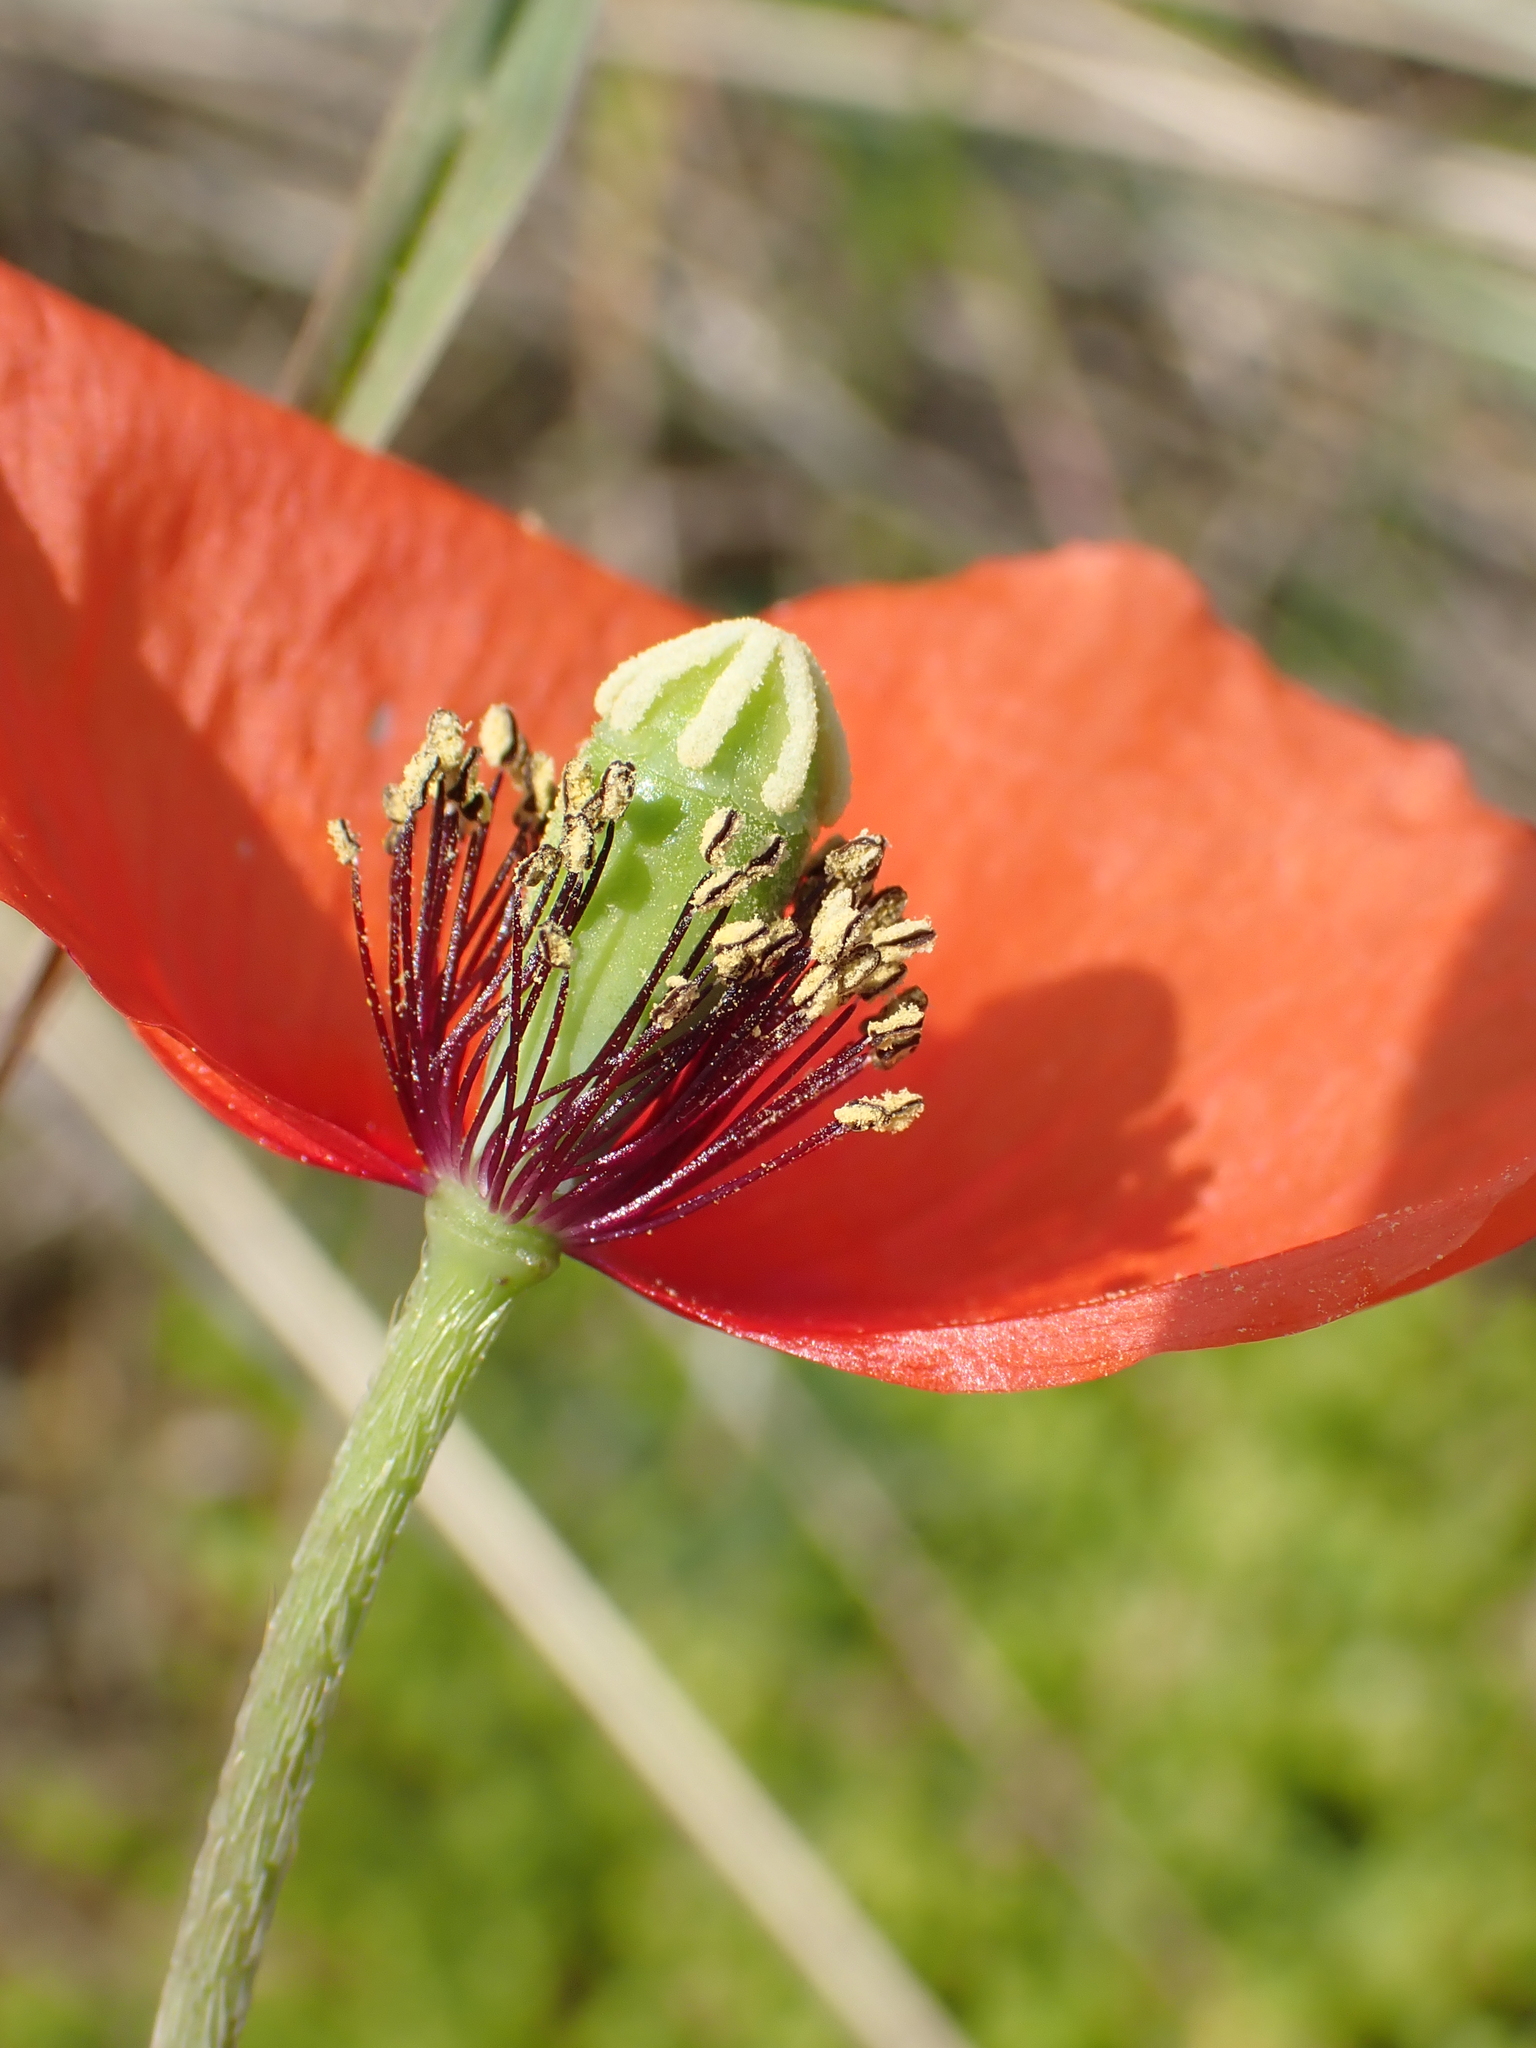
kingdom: Plantae
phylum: Tracheophyta
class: Magnoliopsida
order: Ranunculales
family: Papaveraceae
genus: Papaver
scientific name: Papaver dubium
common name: Long-headed poppy
